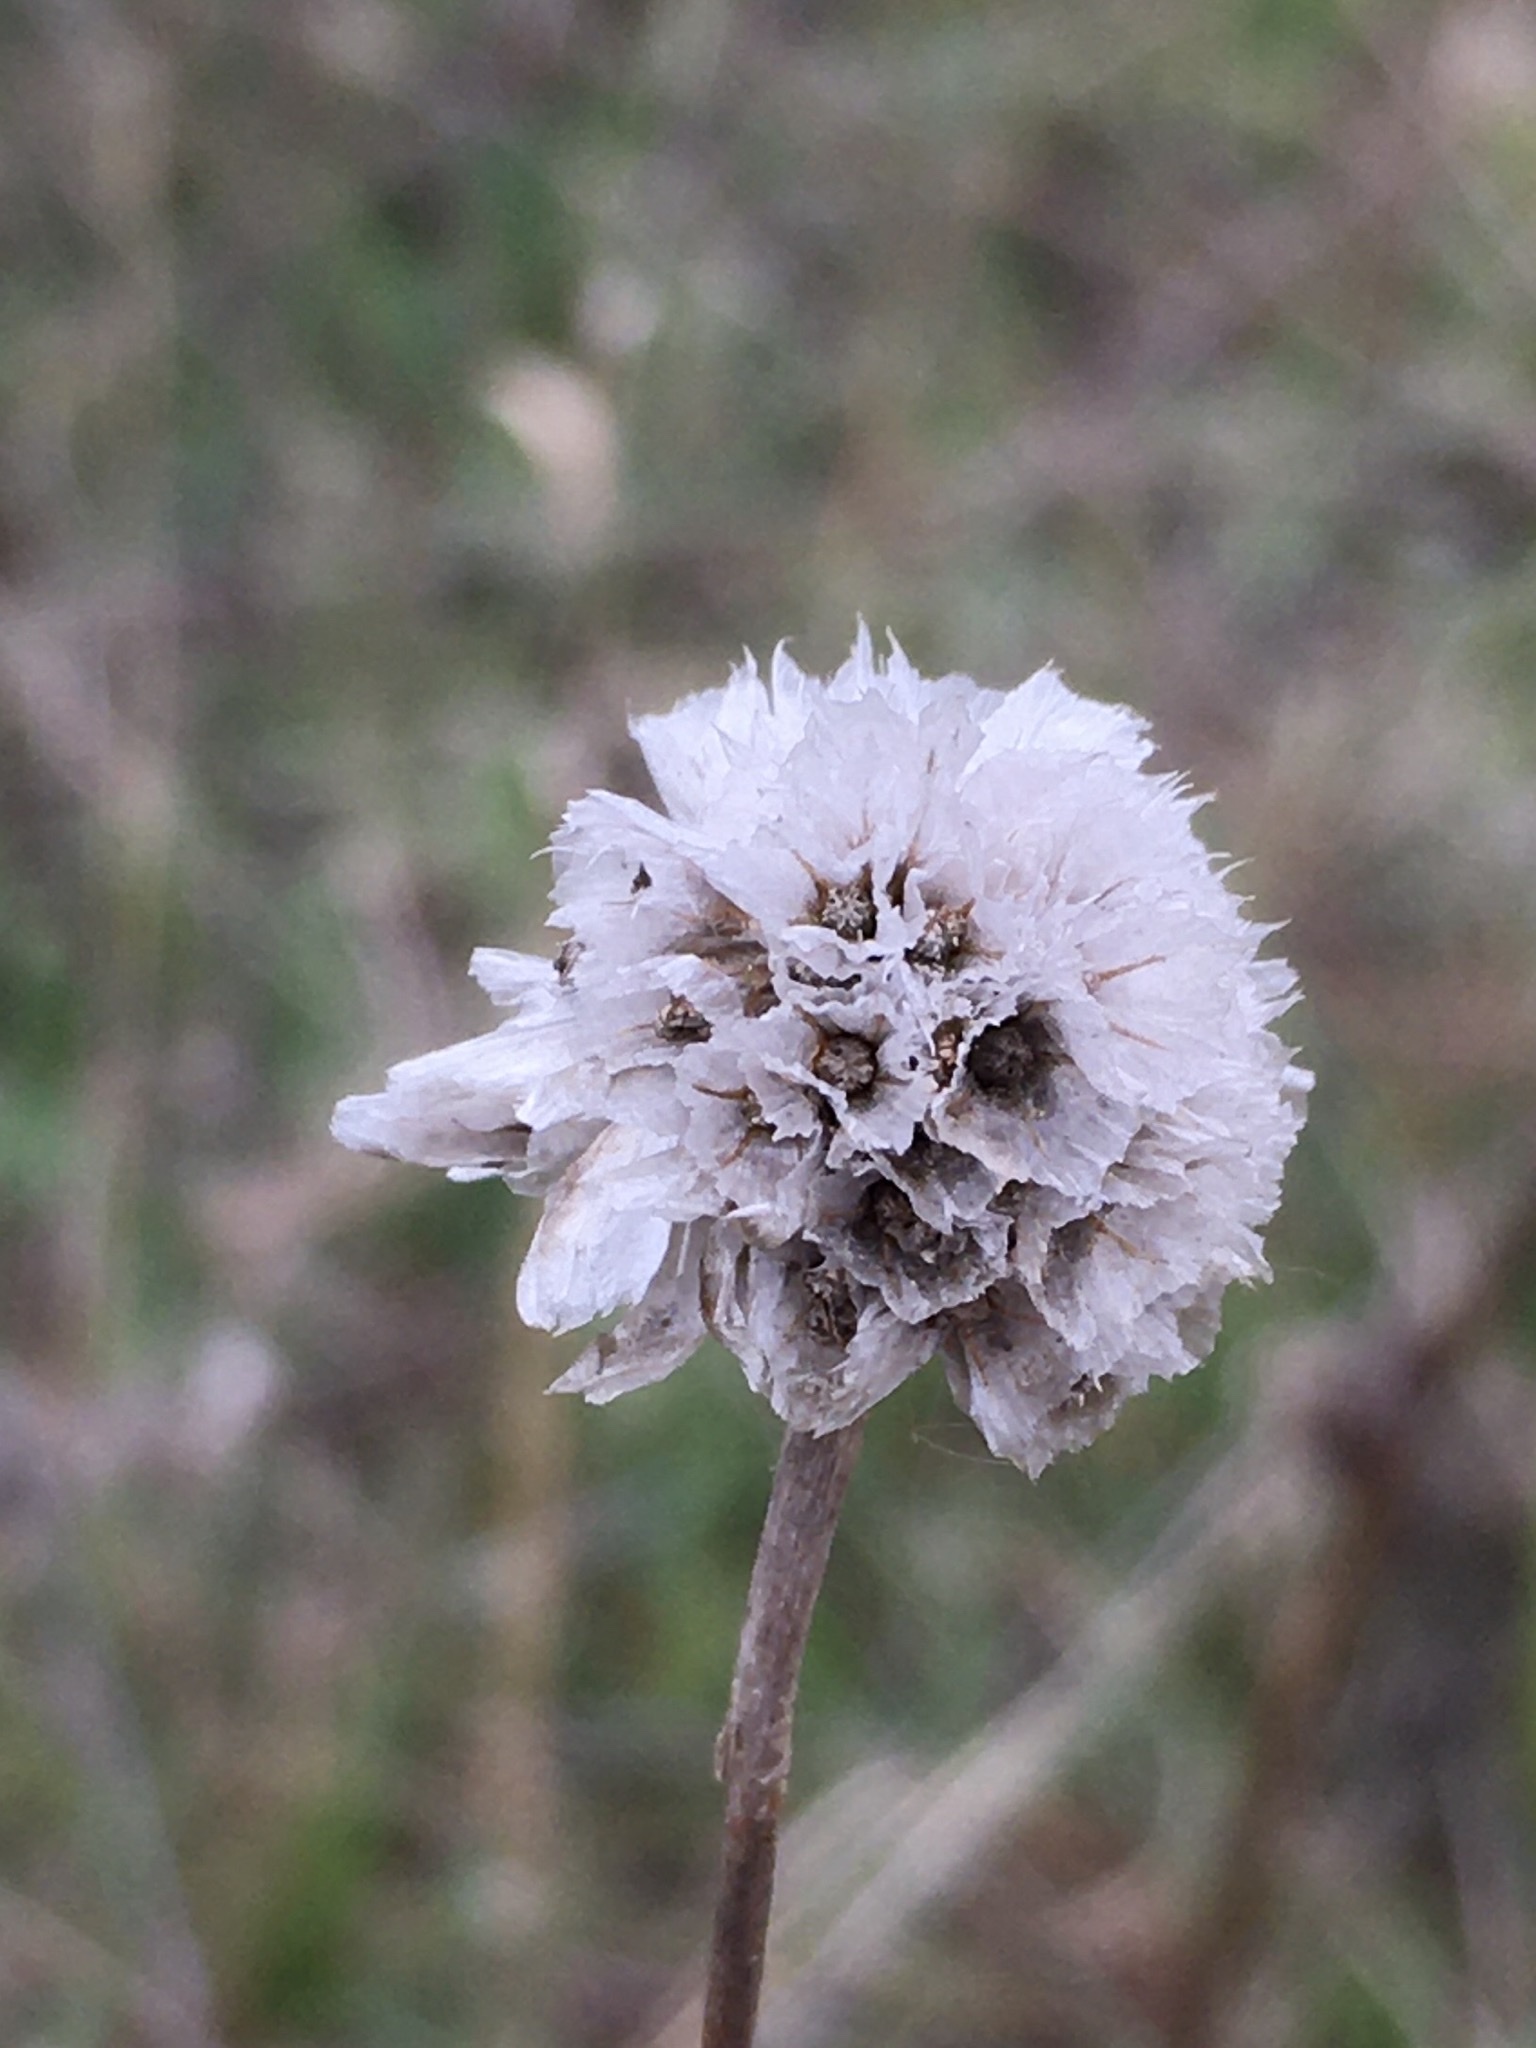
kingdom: Plantae
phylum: Tracheophyta
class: Magnoliopsida
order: Caryophyllales
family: Plumbaginaceae
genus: Armeria
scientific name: Armeria maritima
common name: Thrift
